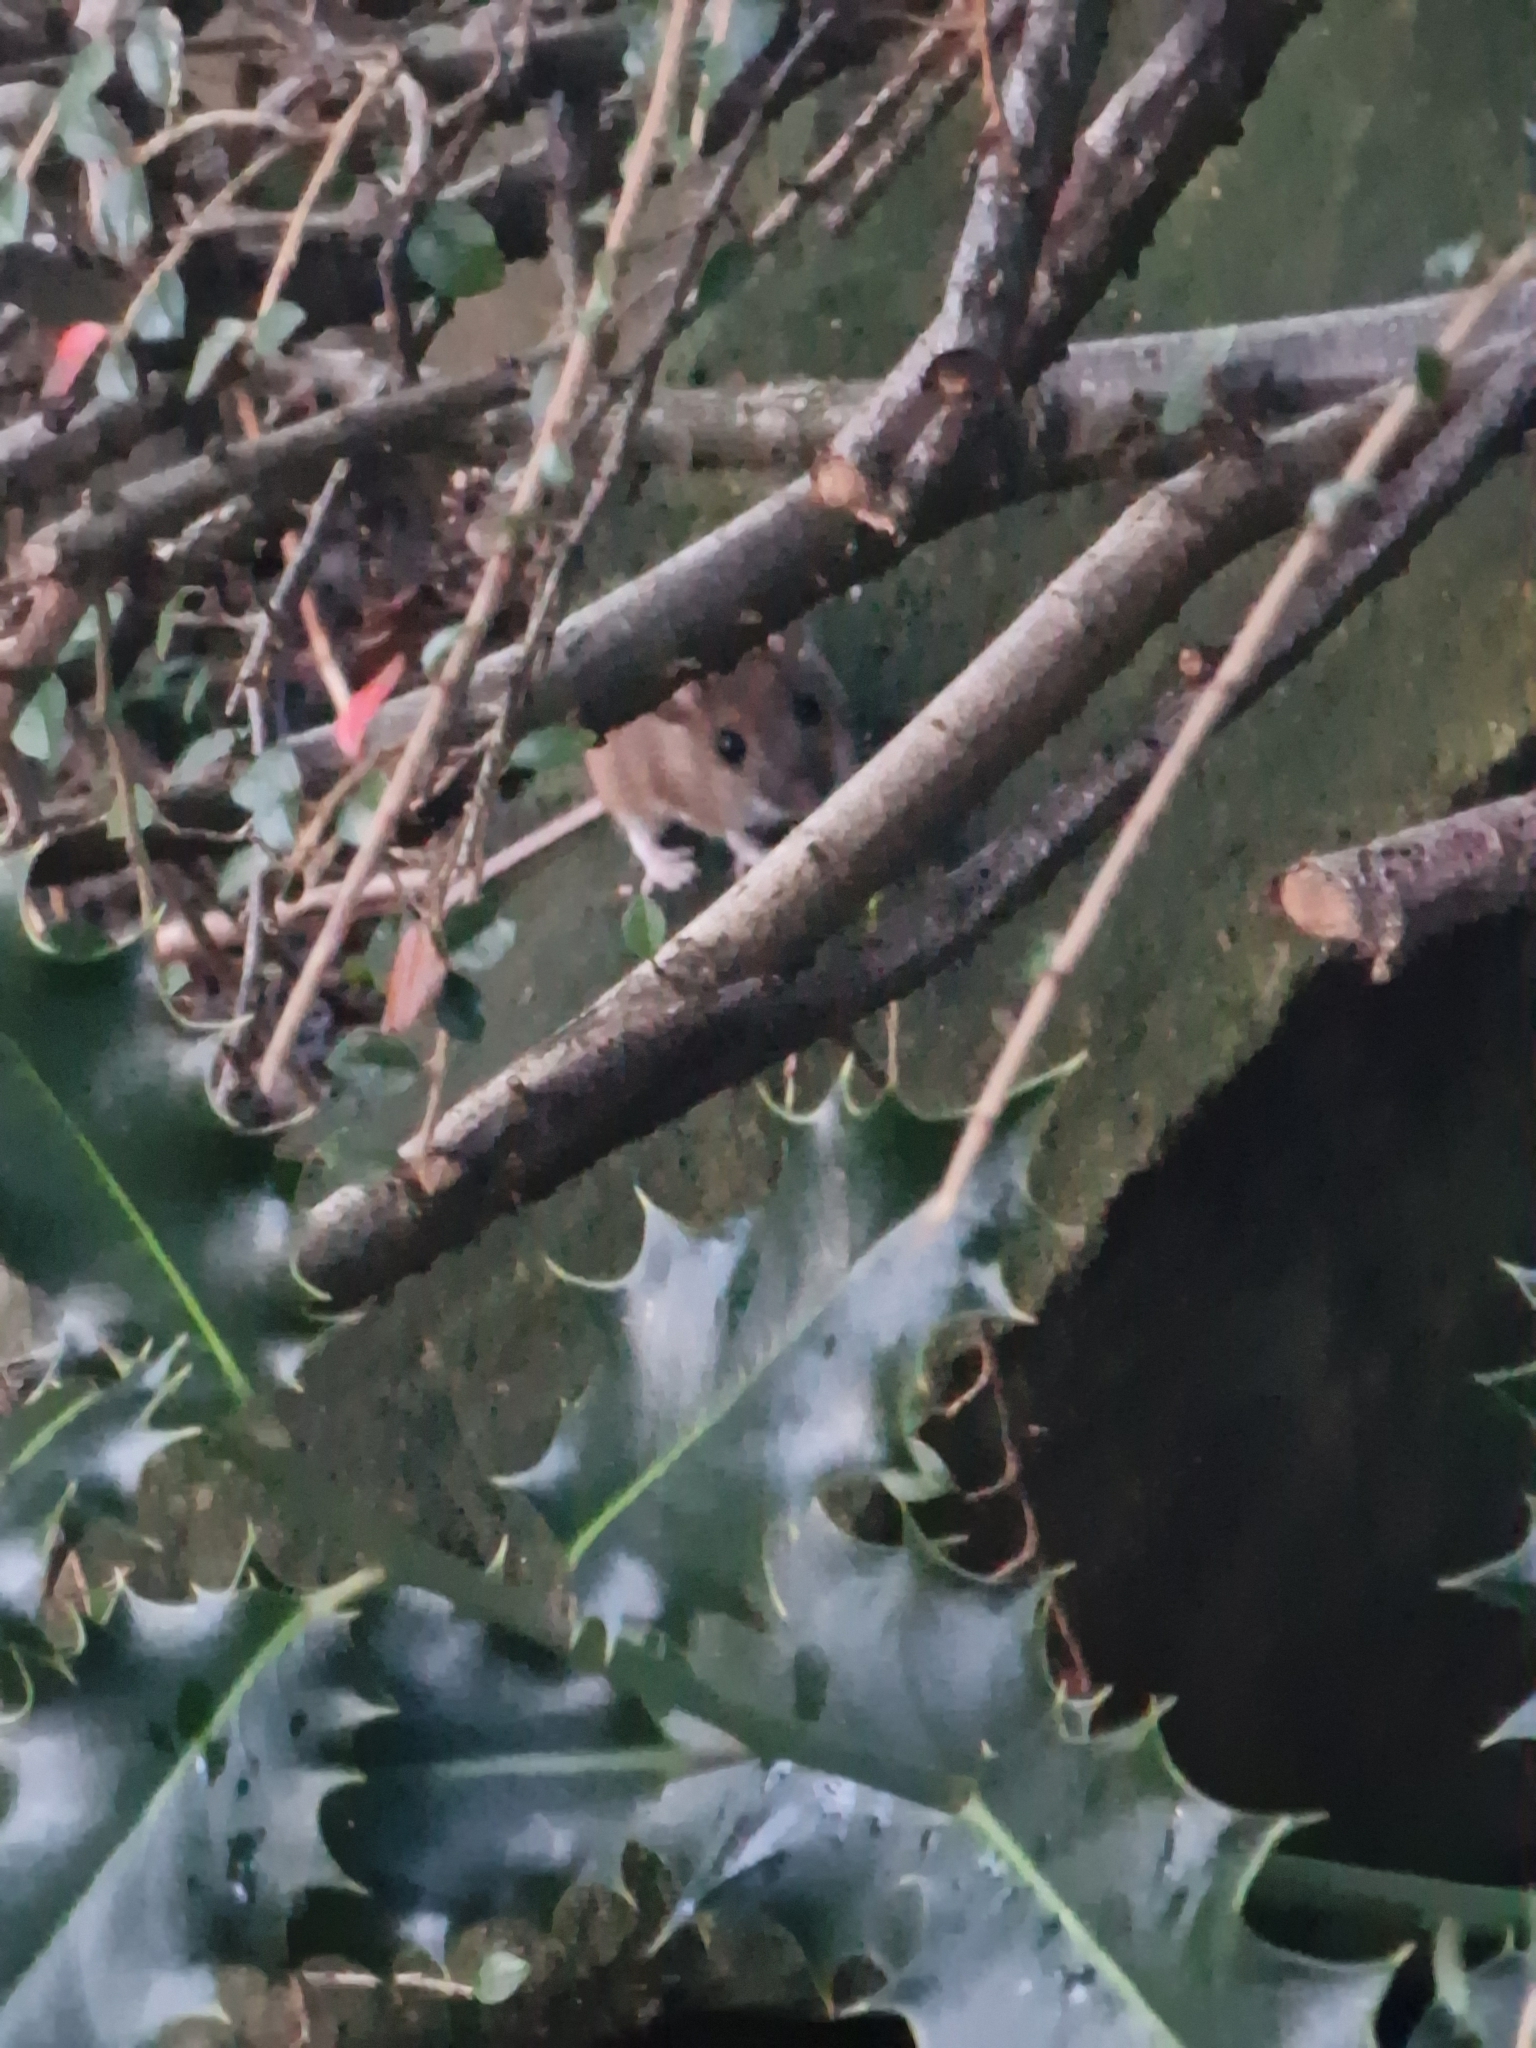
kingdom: Animalia
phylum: Chordata
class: Mammalia
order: Rodentia
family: Muridae
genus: Apodemus
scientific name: Apodemus sylvaticus
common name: Wood mouse
